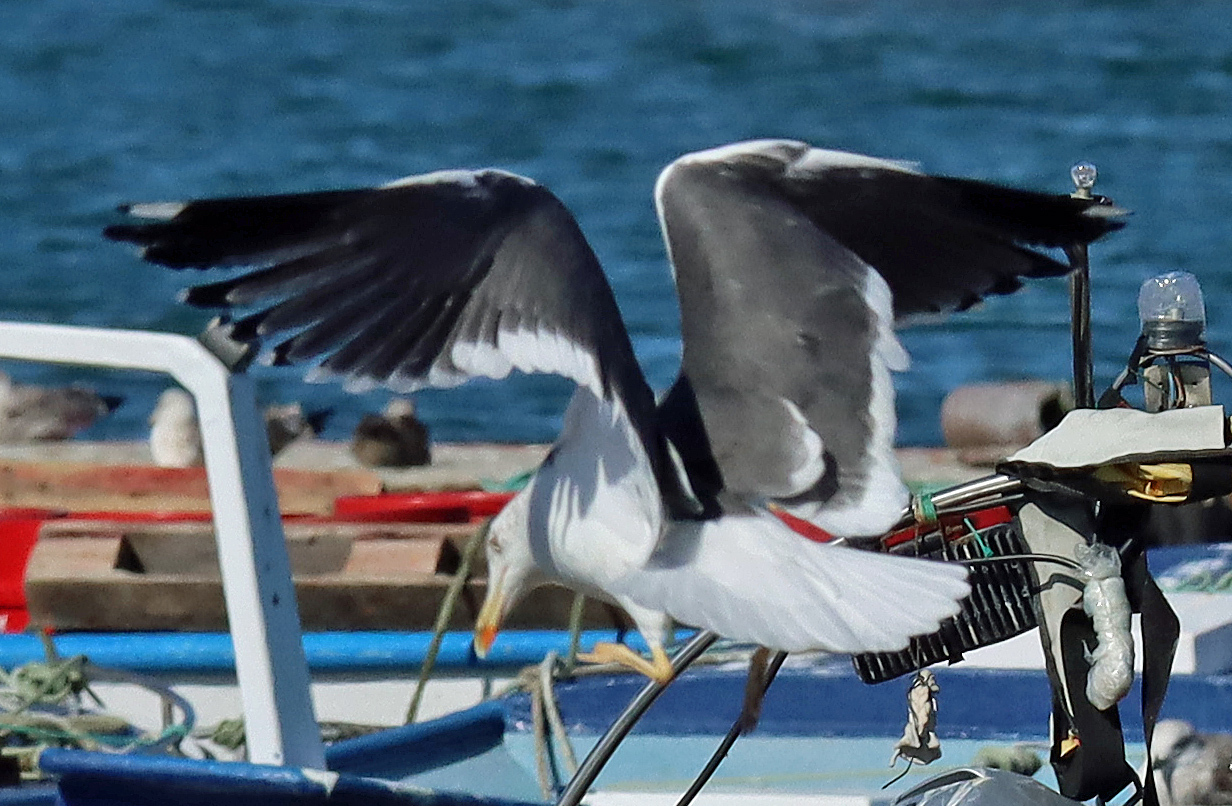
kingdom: Animalia
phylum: Chordata
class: Aves
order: Charadriiformes
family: Laridae
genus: Larus
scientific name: Larus fuscus
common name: Lesser black-backed gull
